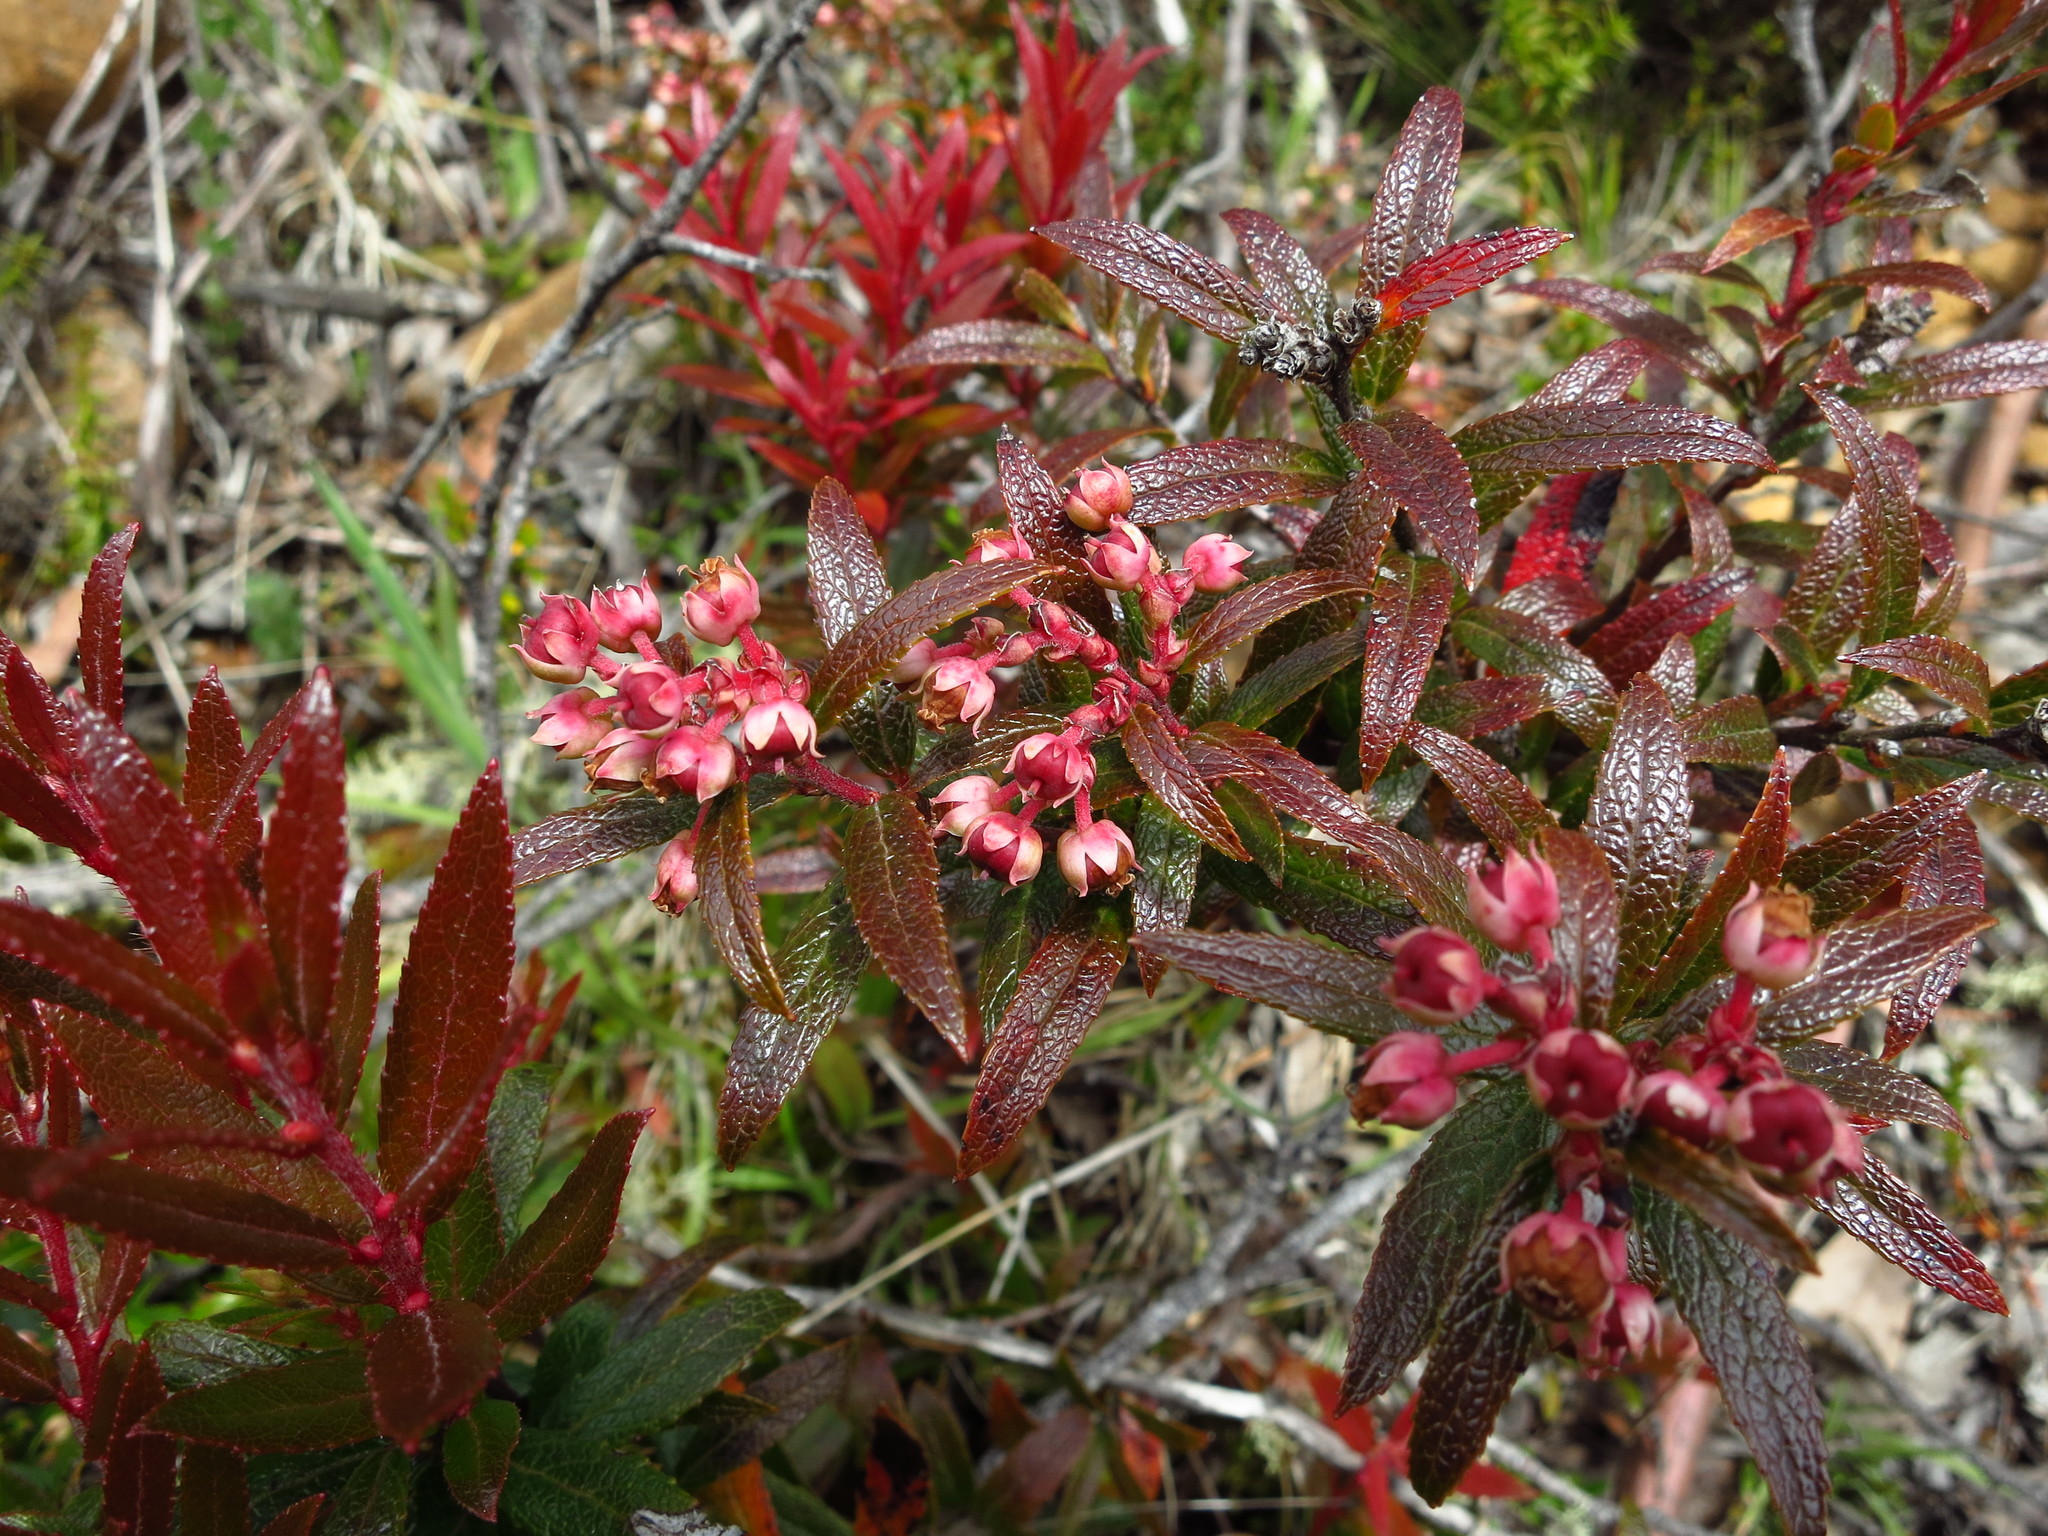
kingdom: Plantae
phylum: Tracheophyta
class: Magnoliopsida
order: Ericales
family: Ericaceae
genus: Gaultheria
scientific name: Gaultheria hispida
